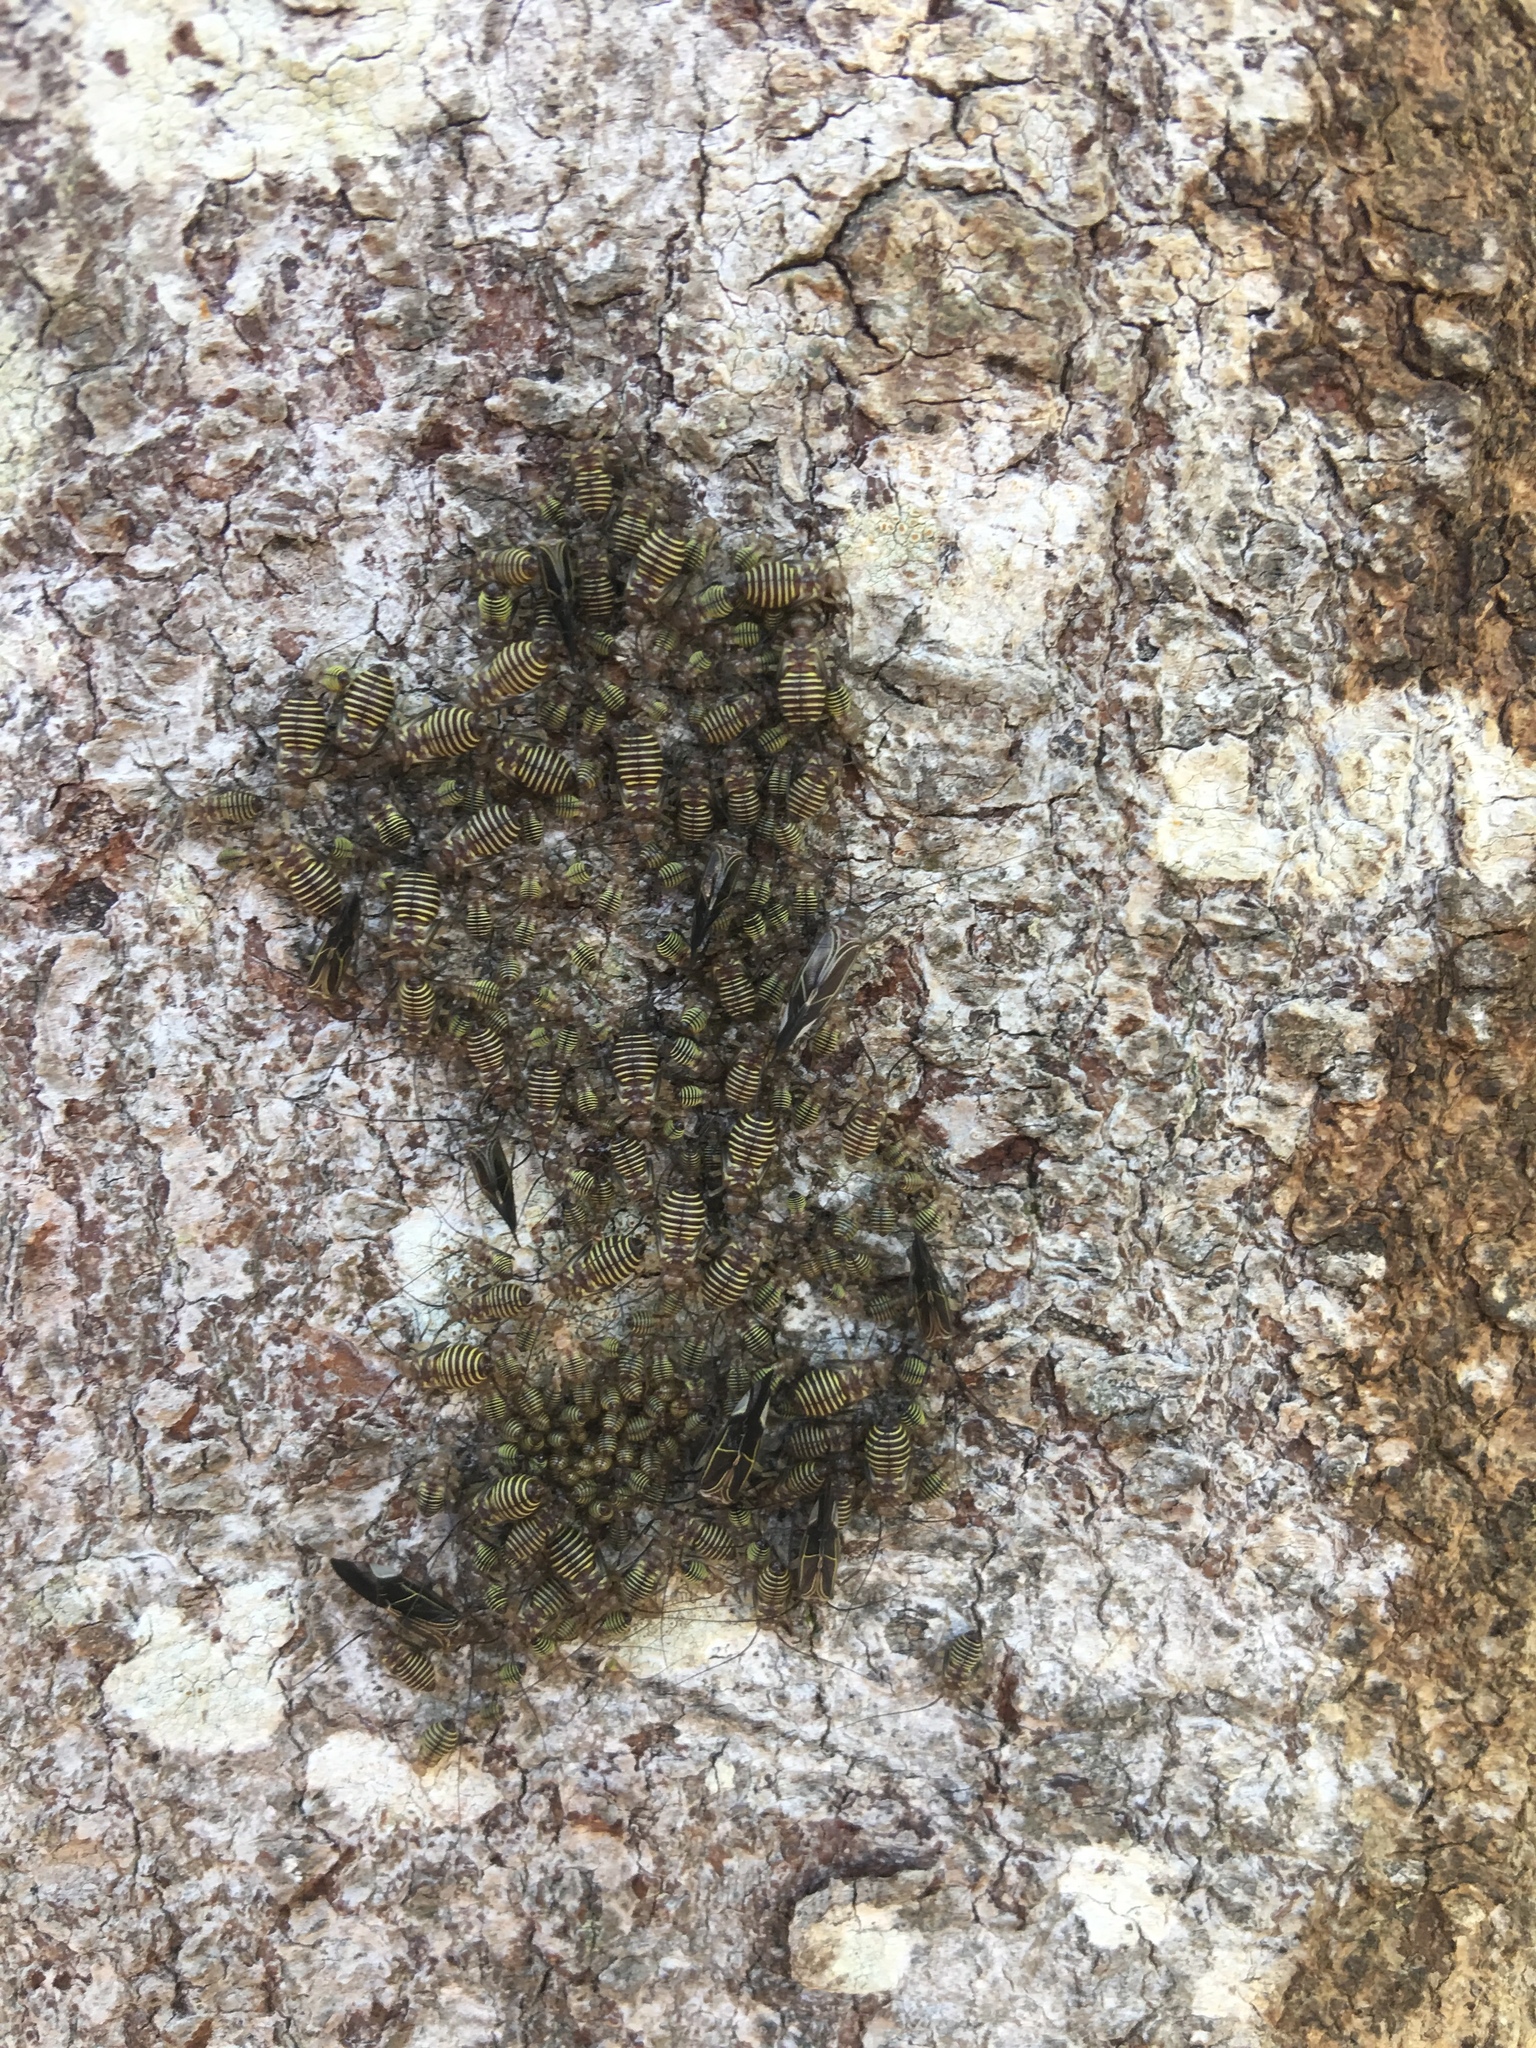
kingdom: Animalia
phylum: Arthropoda
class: Insecta
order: Psocodea
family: Psocidae
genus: Cerastipsocus
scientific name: Cerastipsocus venosus
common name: Tree cattle
